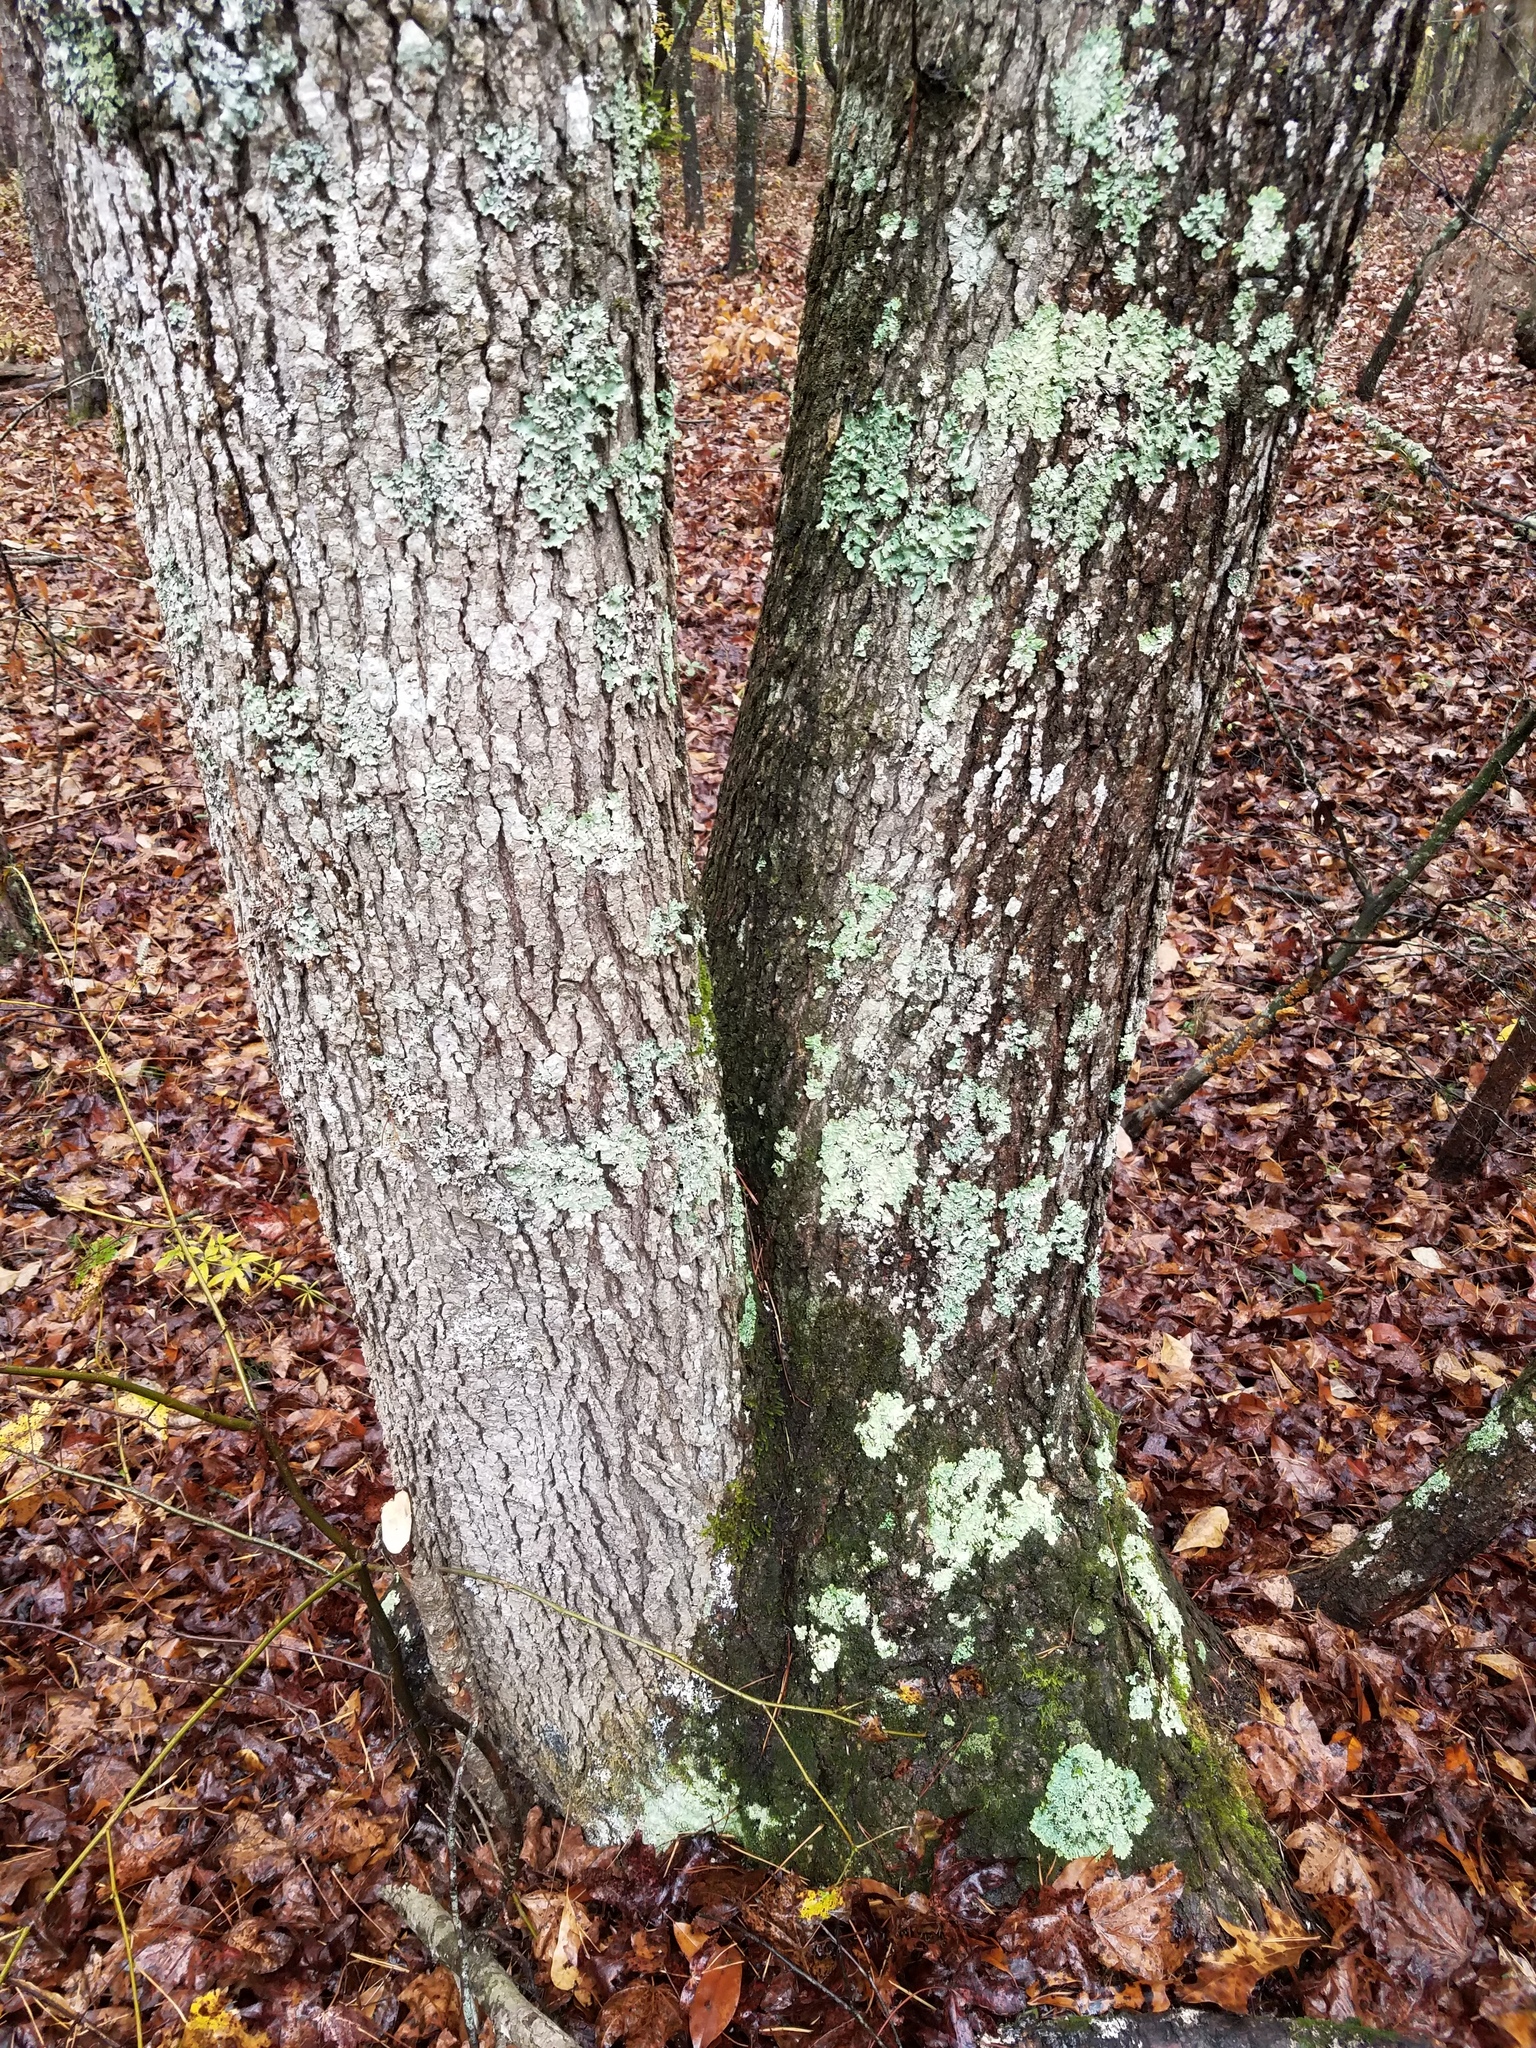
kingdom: Plantae
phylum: Tracheophyta
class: Magnoliopsida
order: Saxifragales
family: Altingiaceae
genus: Liquidambar
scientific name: Liquidambar styraciflua
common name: Sweet gum
